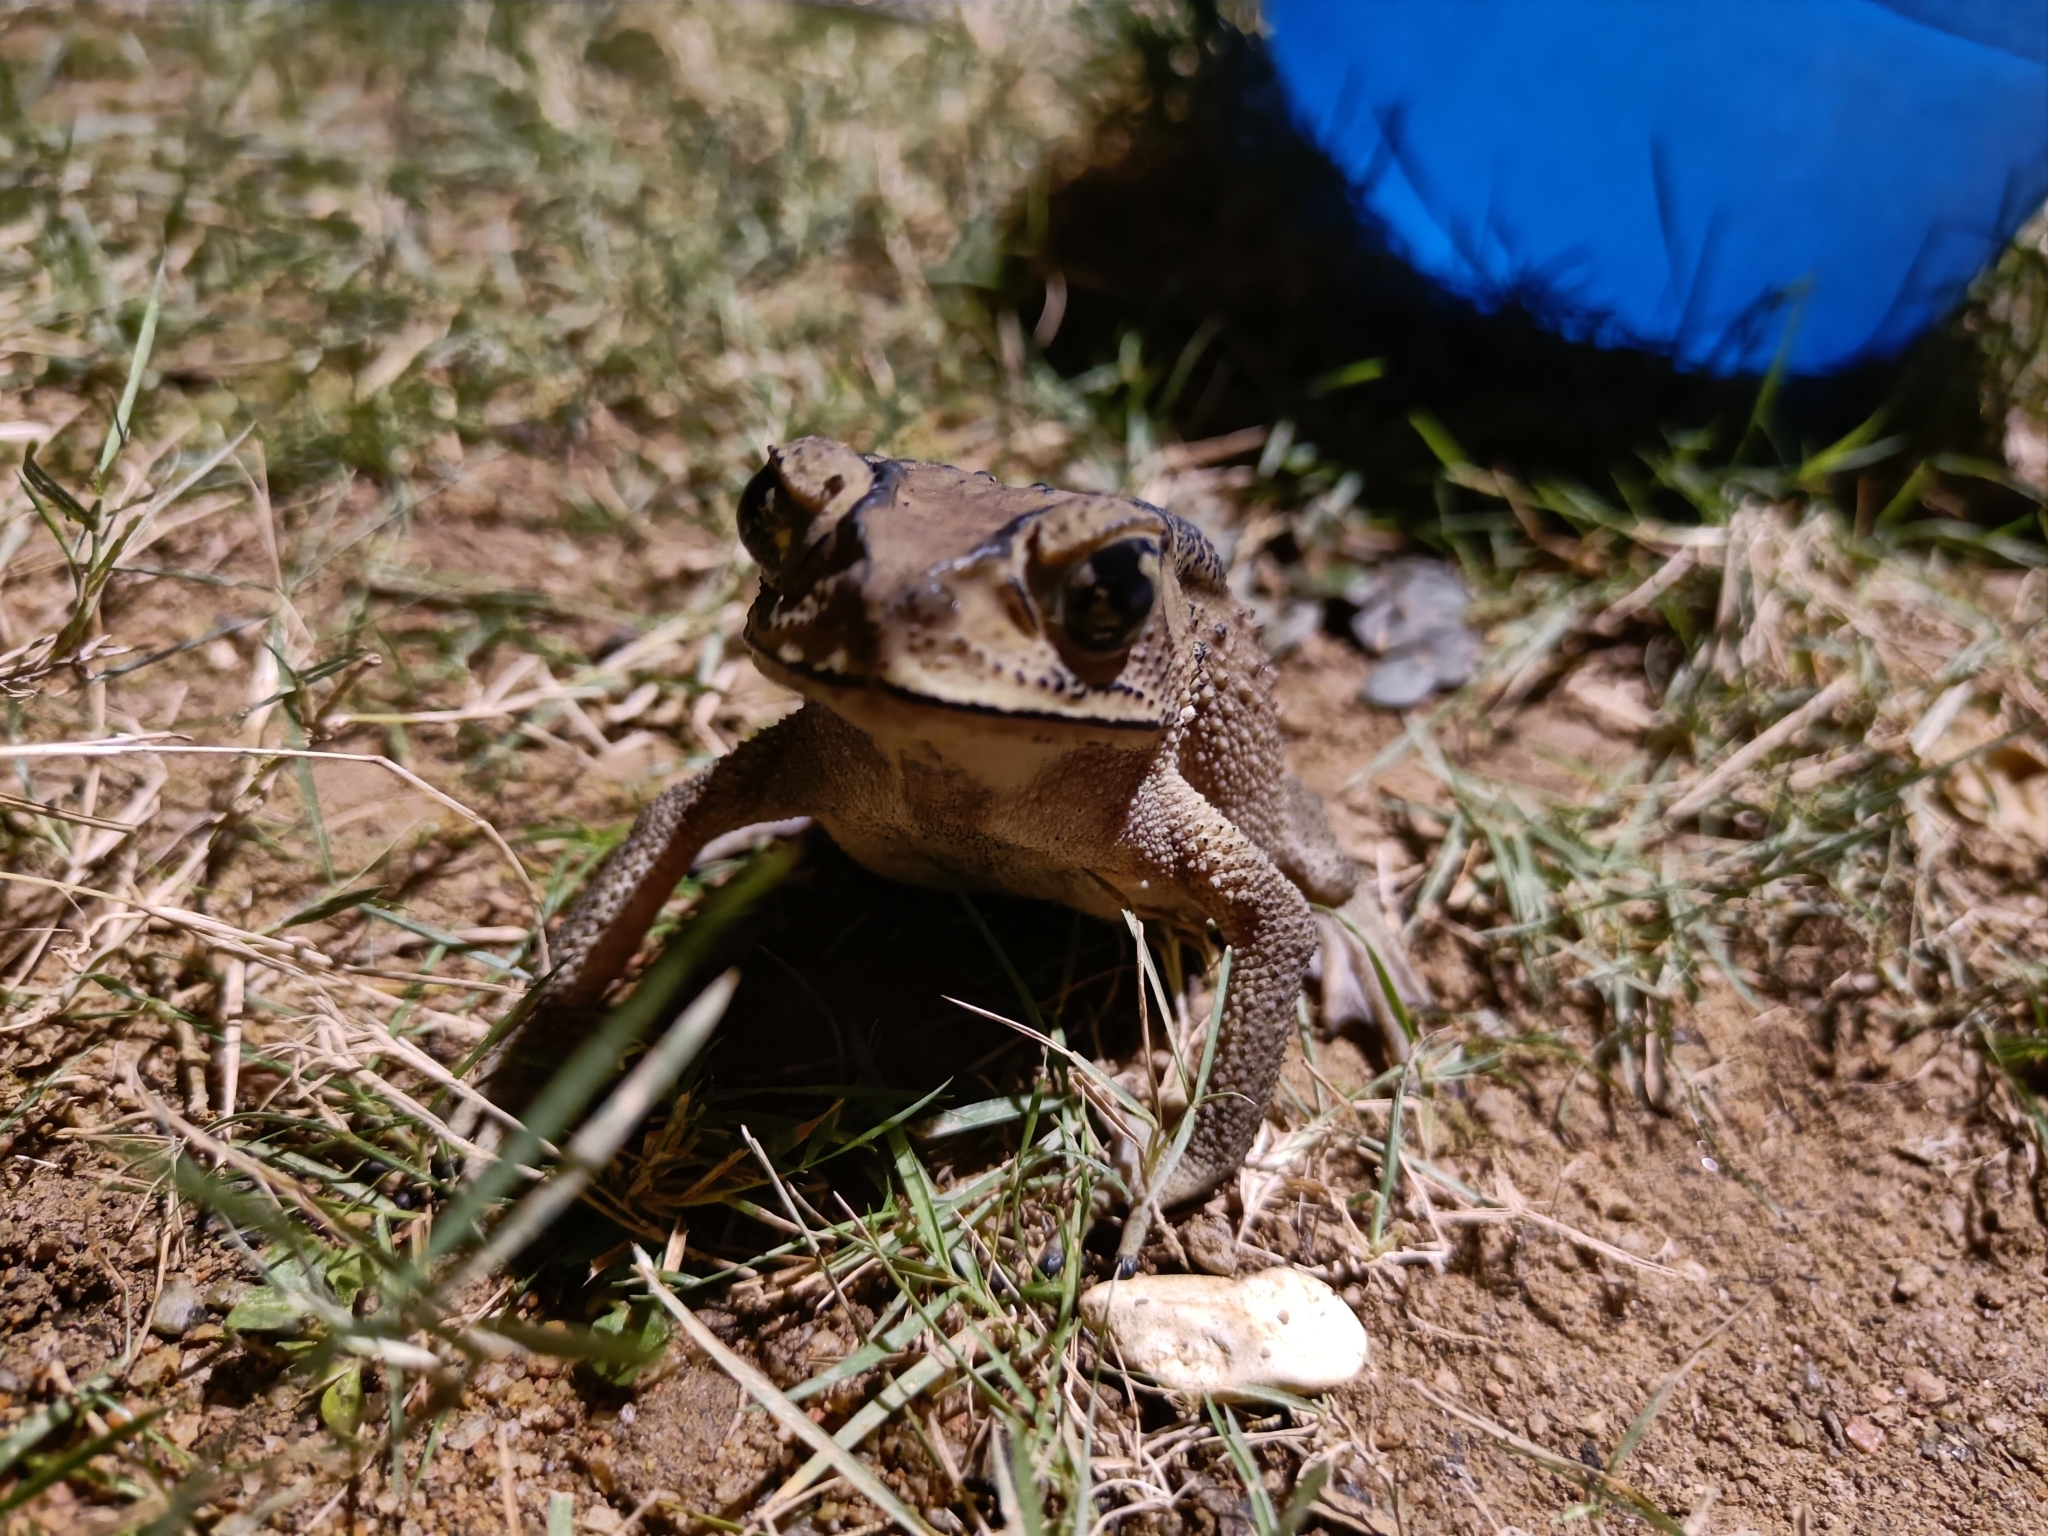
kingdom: Animalia
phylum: Chordata
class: Amphibia
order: Anura
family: Bufonidae
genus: Duttaphrynus
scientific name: Duttaphrynus melanostictus
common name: Common sunda toad
